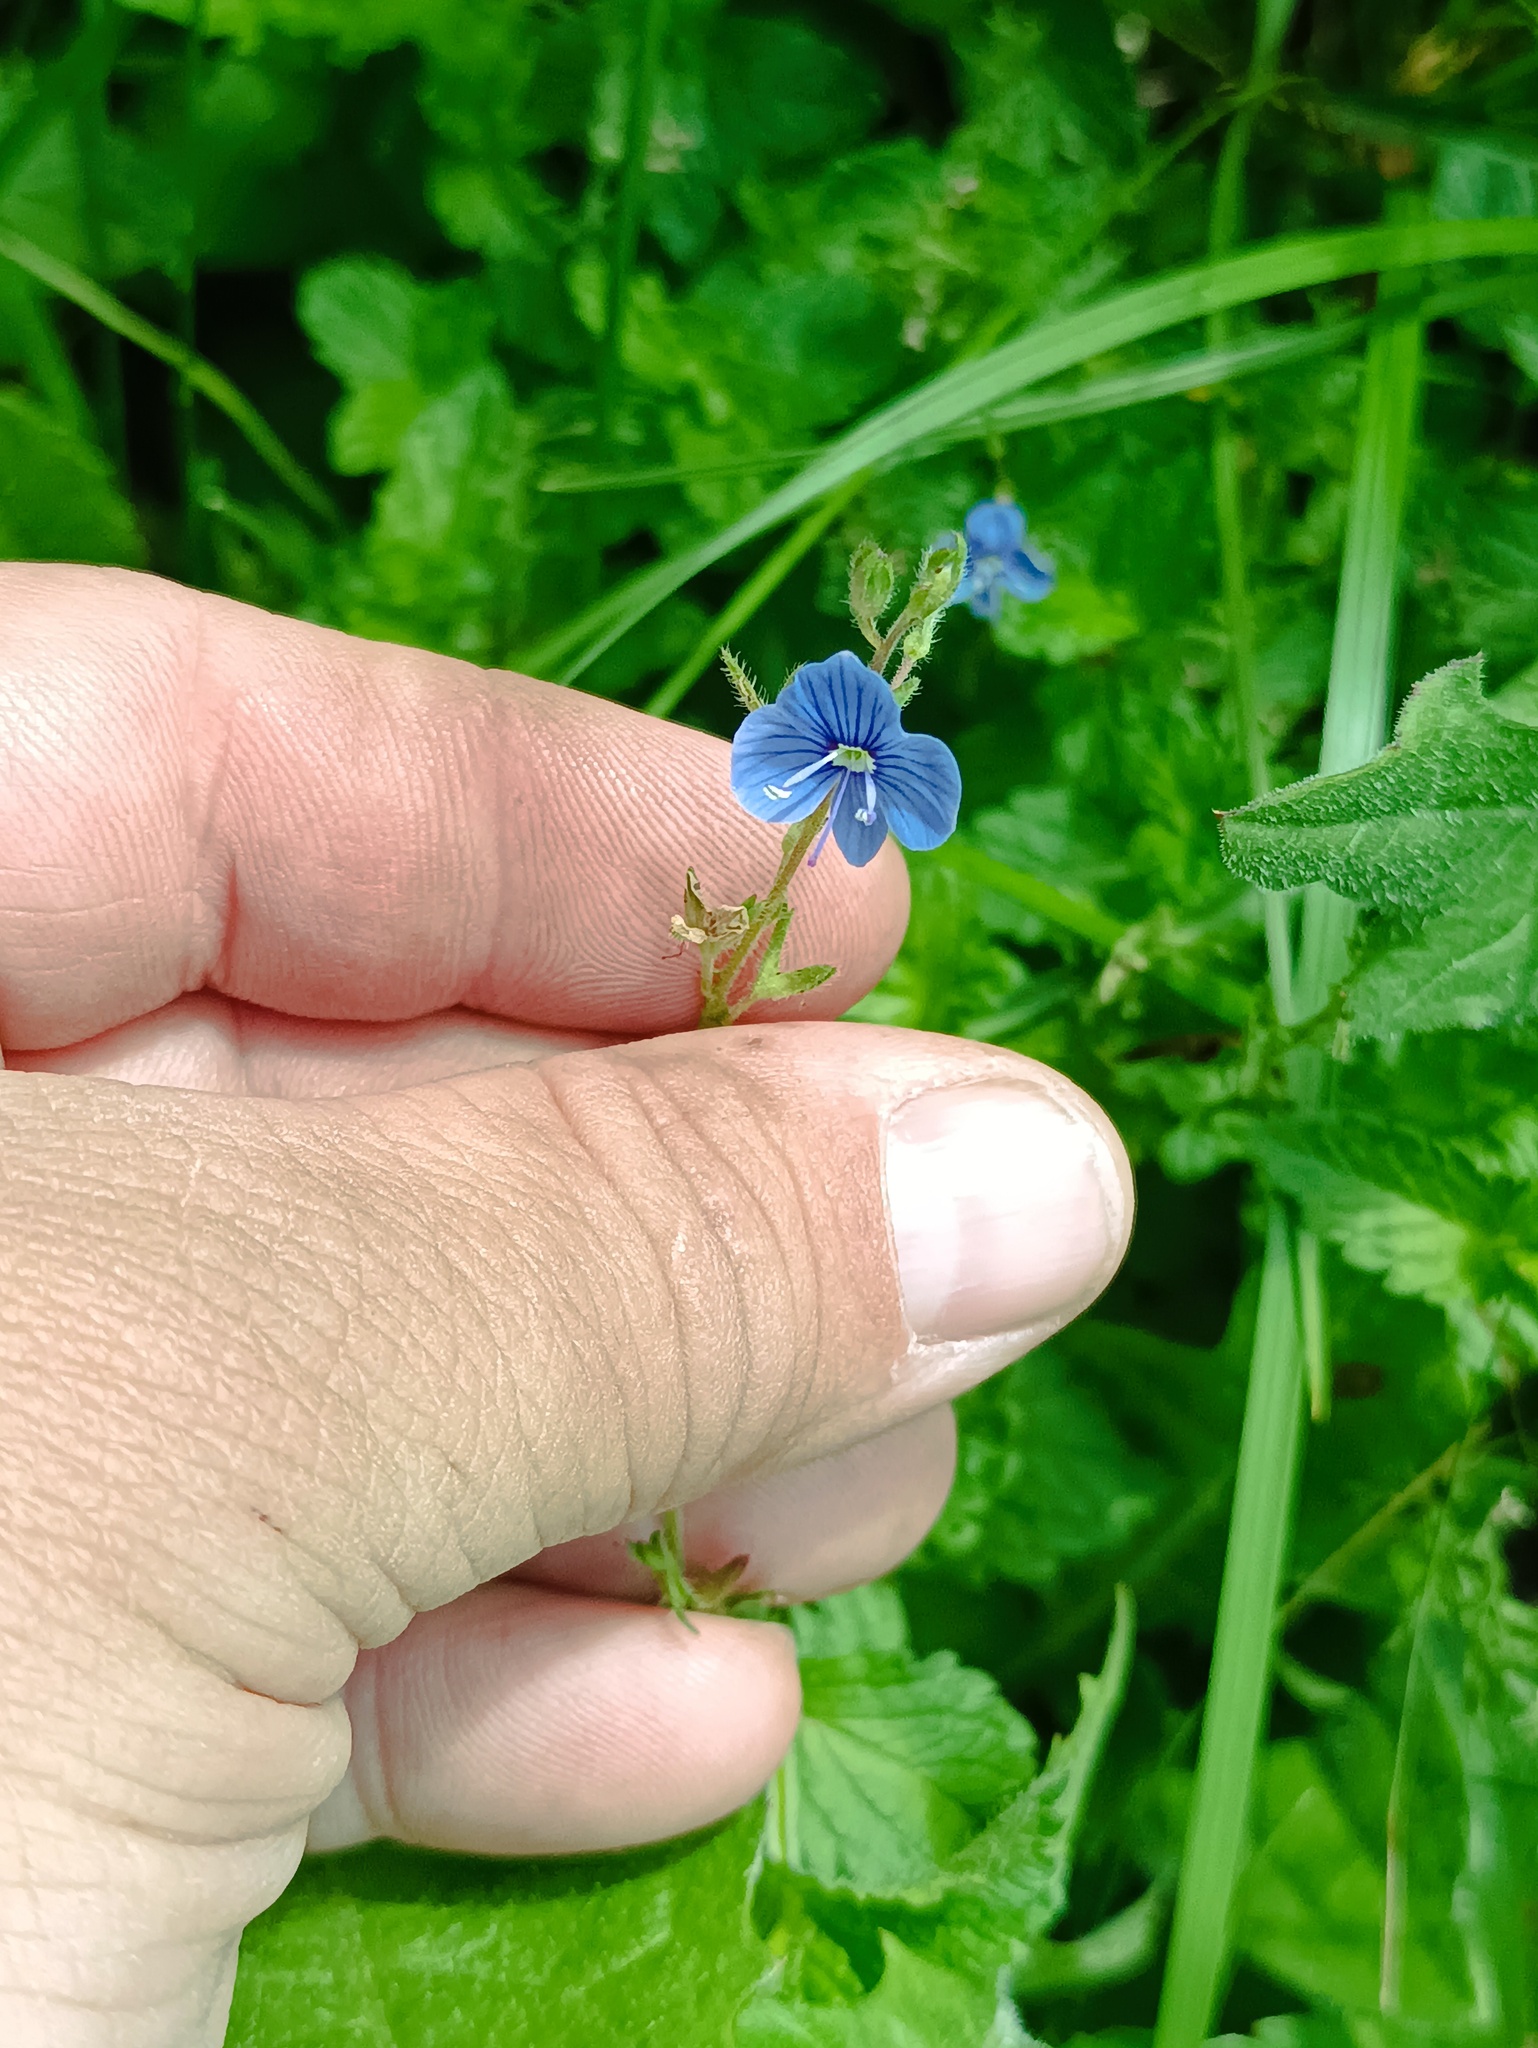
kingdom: Plantae
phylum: Tracheophyta
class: Magnoliopsida
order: Lamiales
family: Plantaginaceae
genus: Veronica
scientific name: Veronica chamaedrys
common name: Germander speedwell
